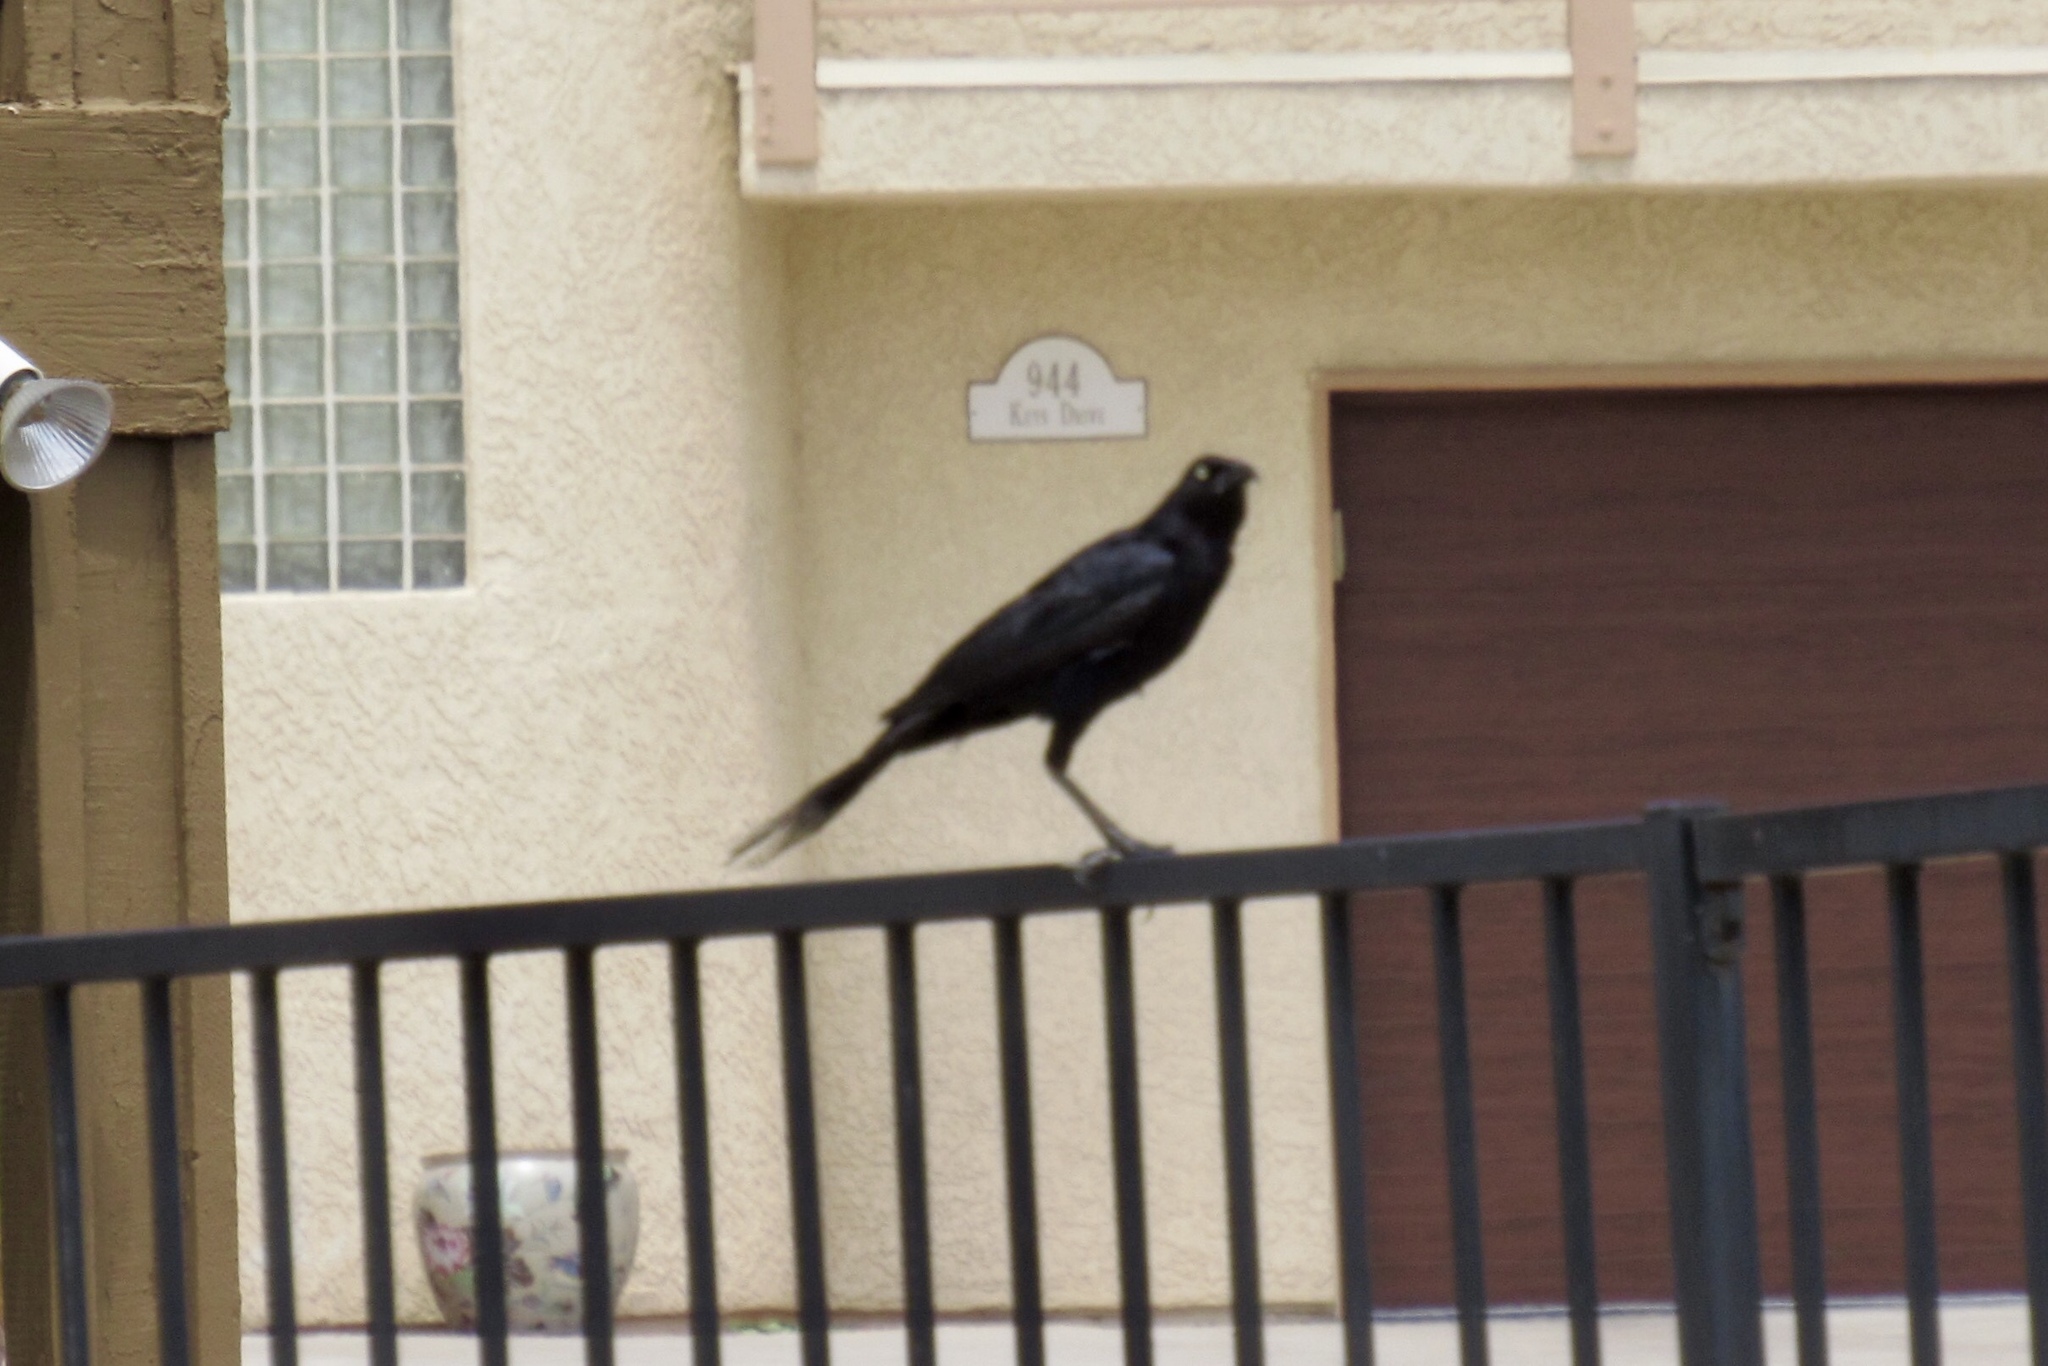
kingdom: Animalia
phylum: Chordata
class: Aves
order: Passeriformes
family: Icteridae
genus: Quiscalus
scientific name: Quiscalus mexicanus
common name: Great-tailed grackle
